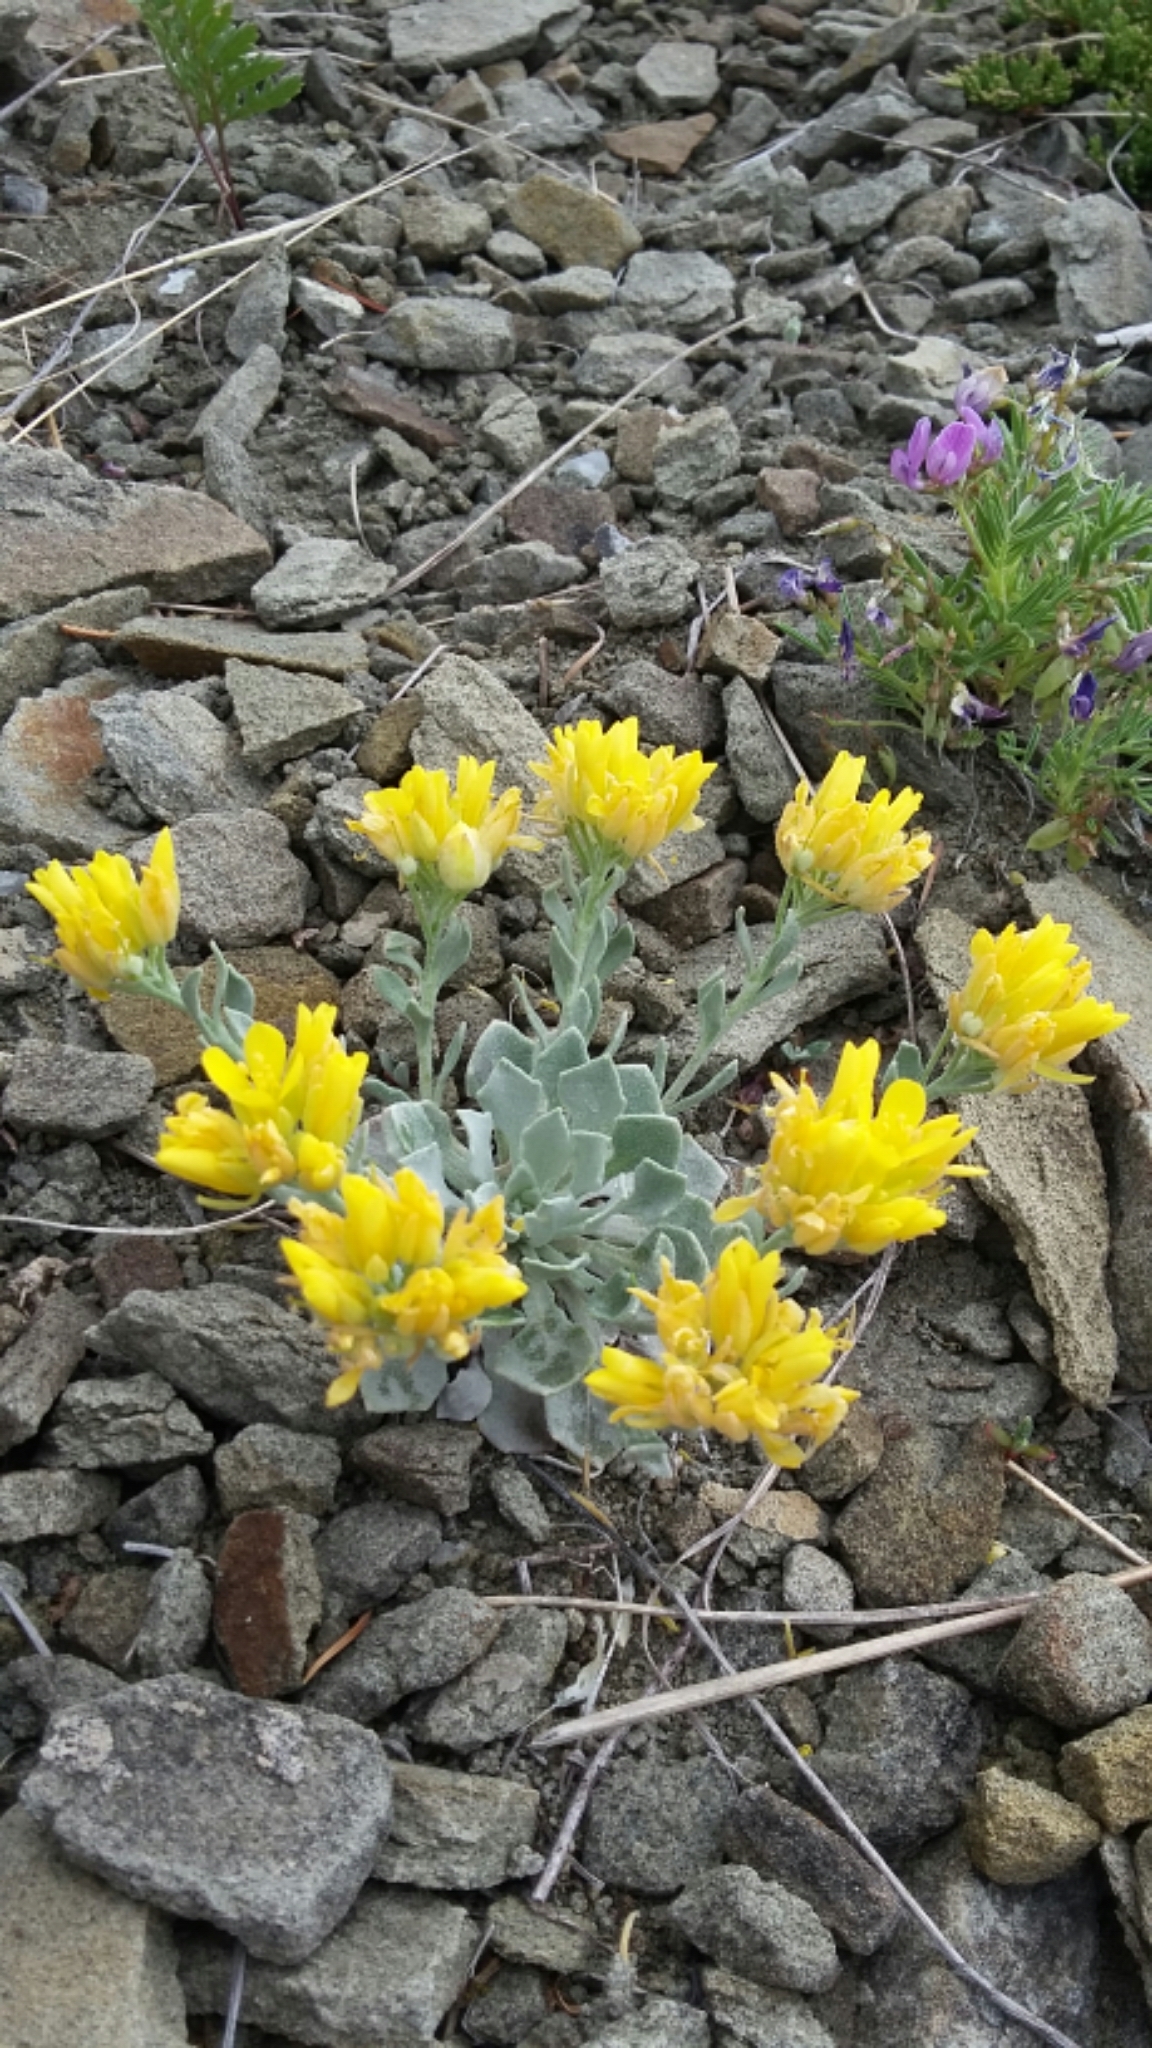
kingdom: Plantae
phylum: Tracheophyta
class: Magnoliopsida
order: Brassicales
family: Brassicaceae
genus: Physaria
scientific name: Physaria didymocarpa
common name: Common twinpod
